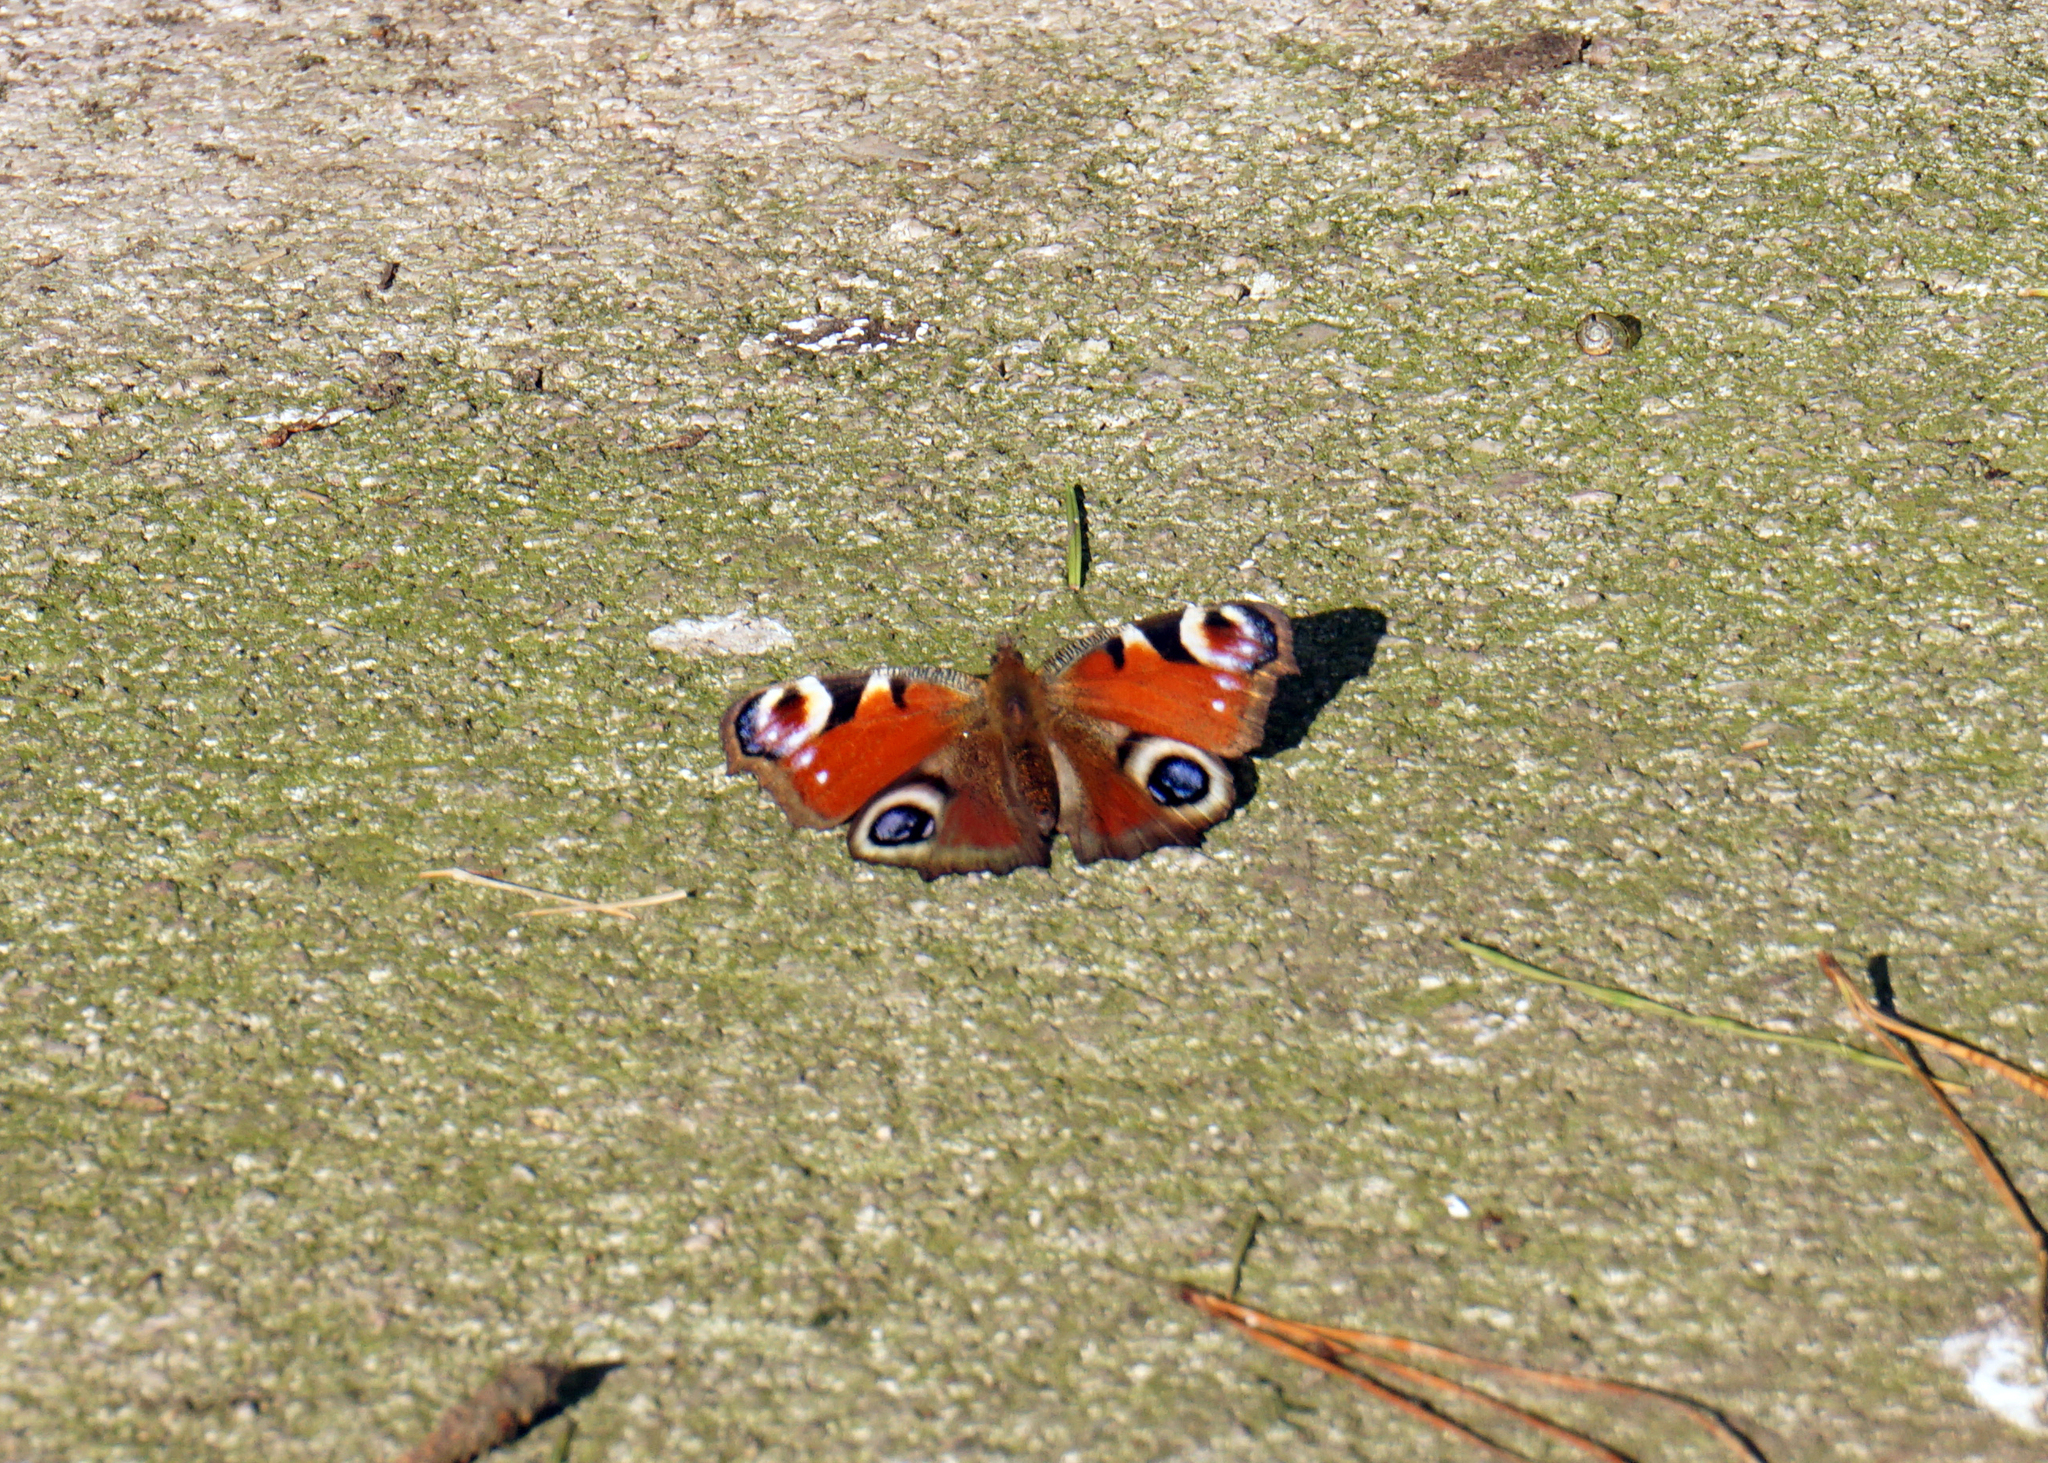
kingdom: Animalia
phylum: Arthropoda
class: Insecta
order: Lepidoptera
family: Nymphalidae
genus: Aglais
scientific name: Aglais io
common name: Peacock
